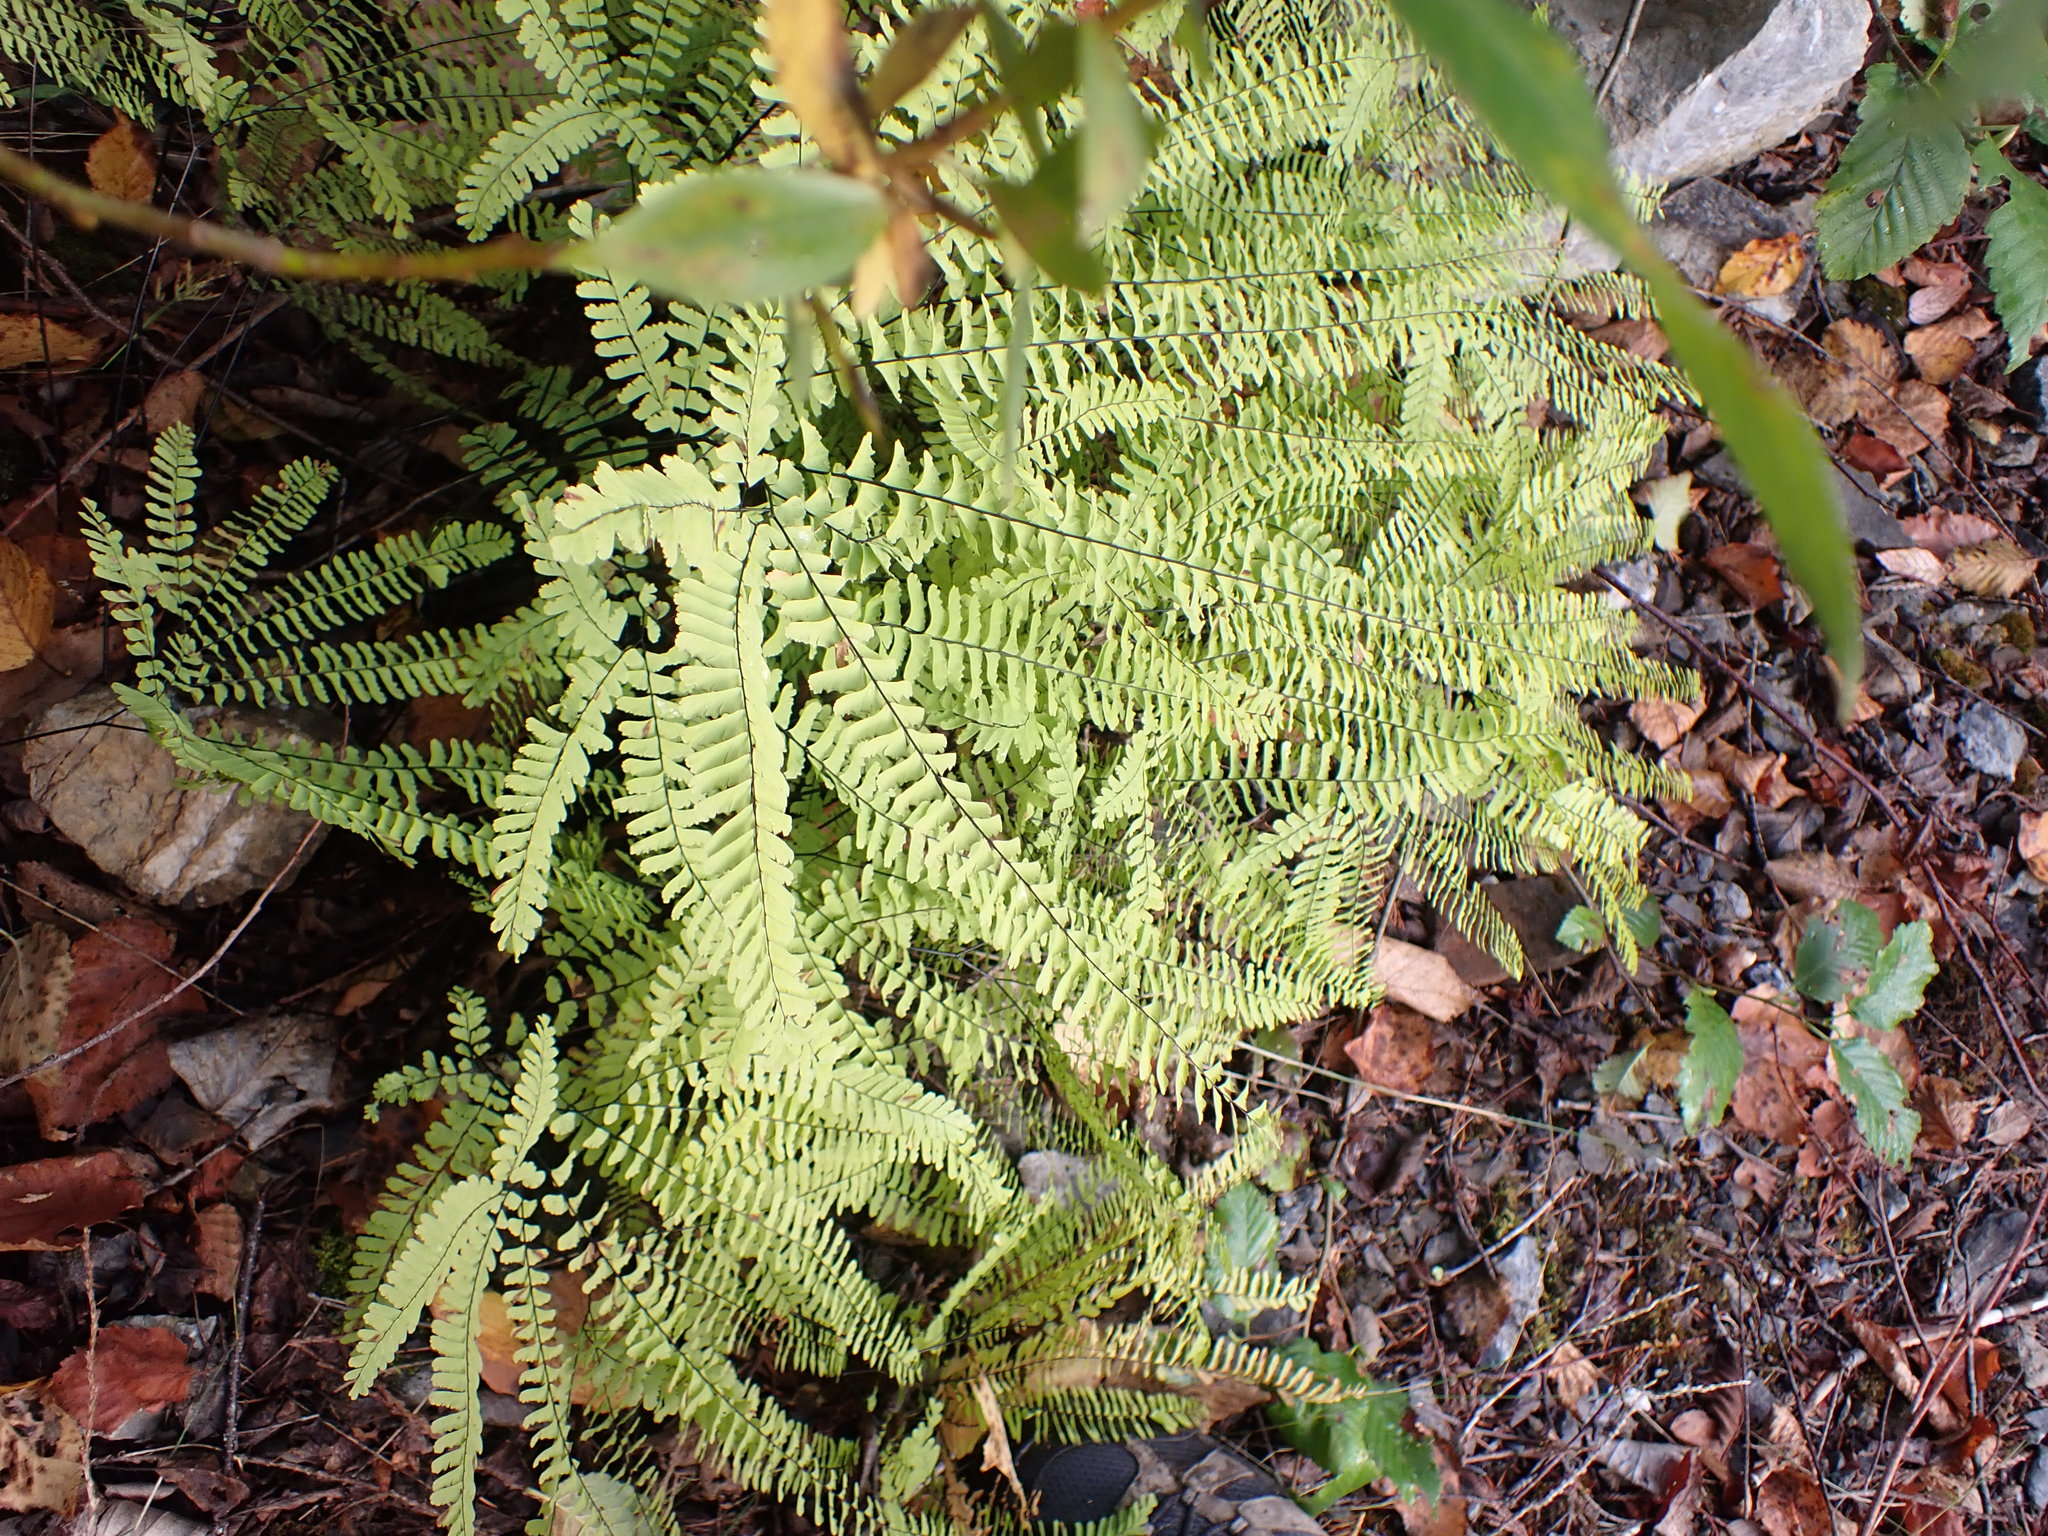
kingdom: Plantae
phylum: Tracheophyta
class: Polypodiopsida
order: Polypodiales
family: Pteridaceae
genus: Adiantum
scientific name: Adiantum aleuticum
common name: Aleutian maidenhair fern
